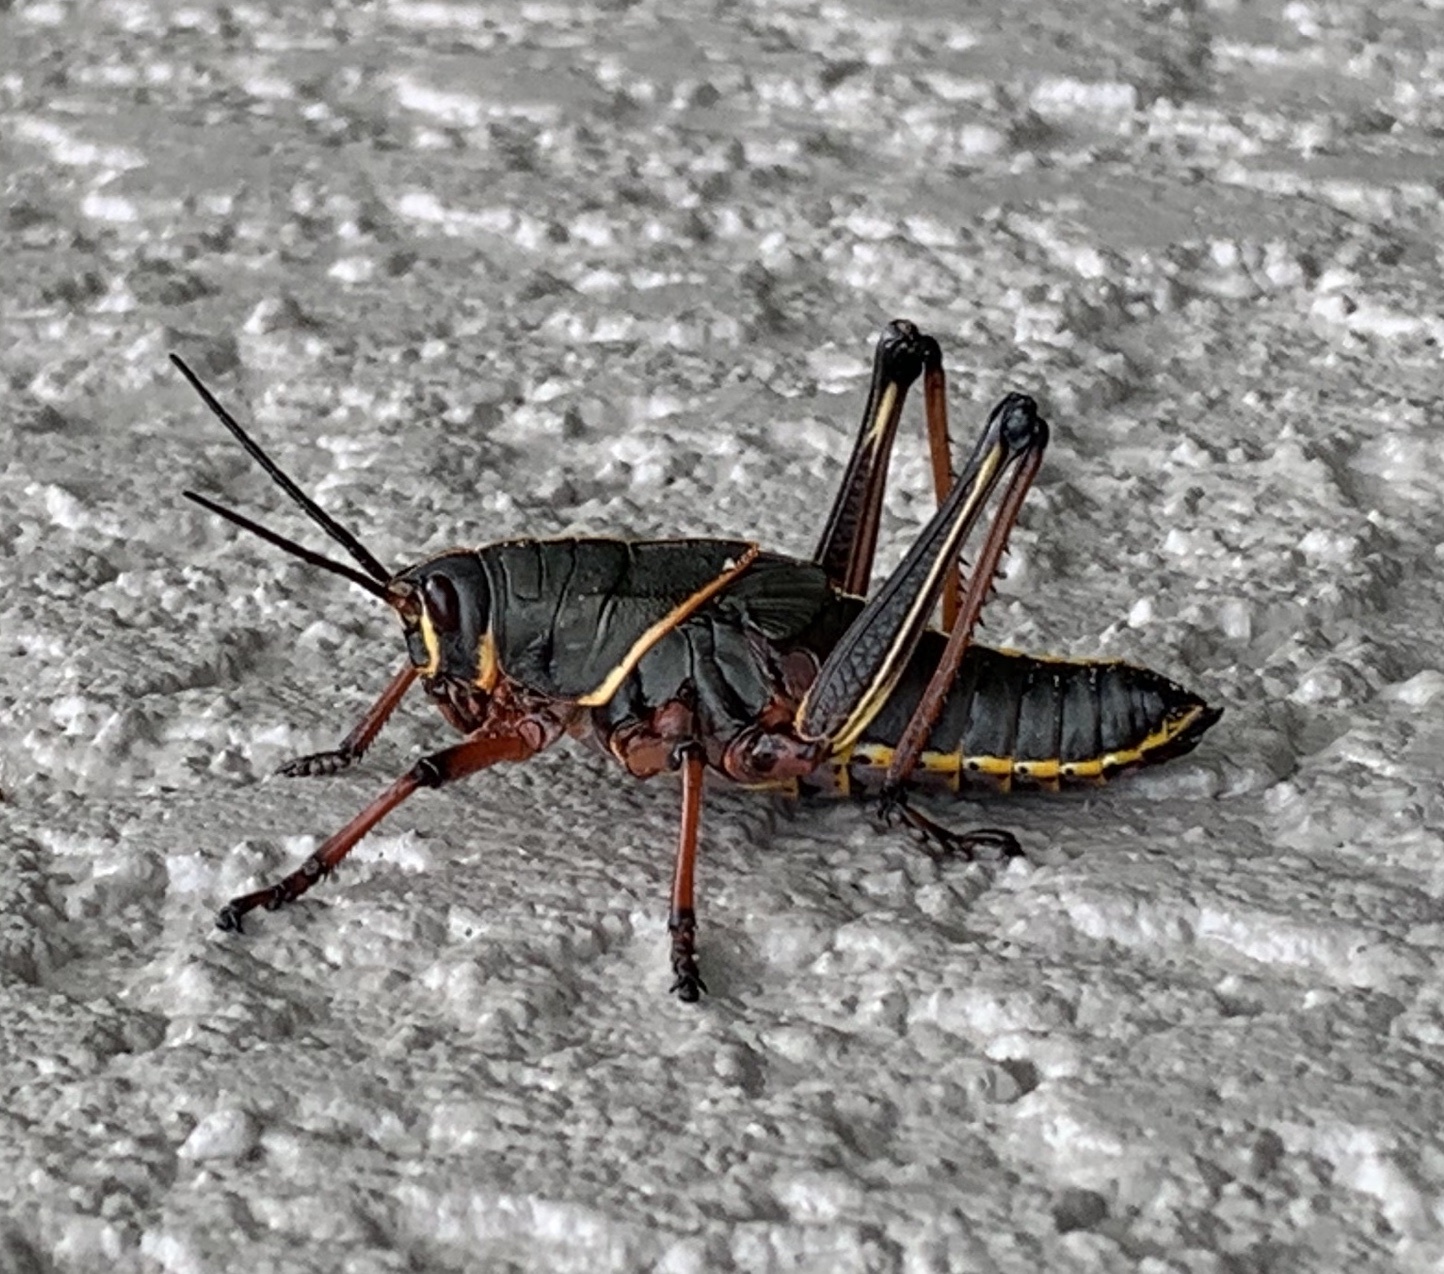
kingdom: Animalia
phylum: Arthropoda
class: Insecta
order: Orthoptera
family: Romaleidae
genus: Romalea
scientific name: Romalea microptera
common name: Eastern lubber grasshopper
